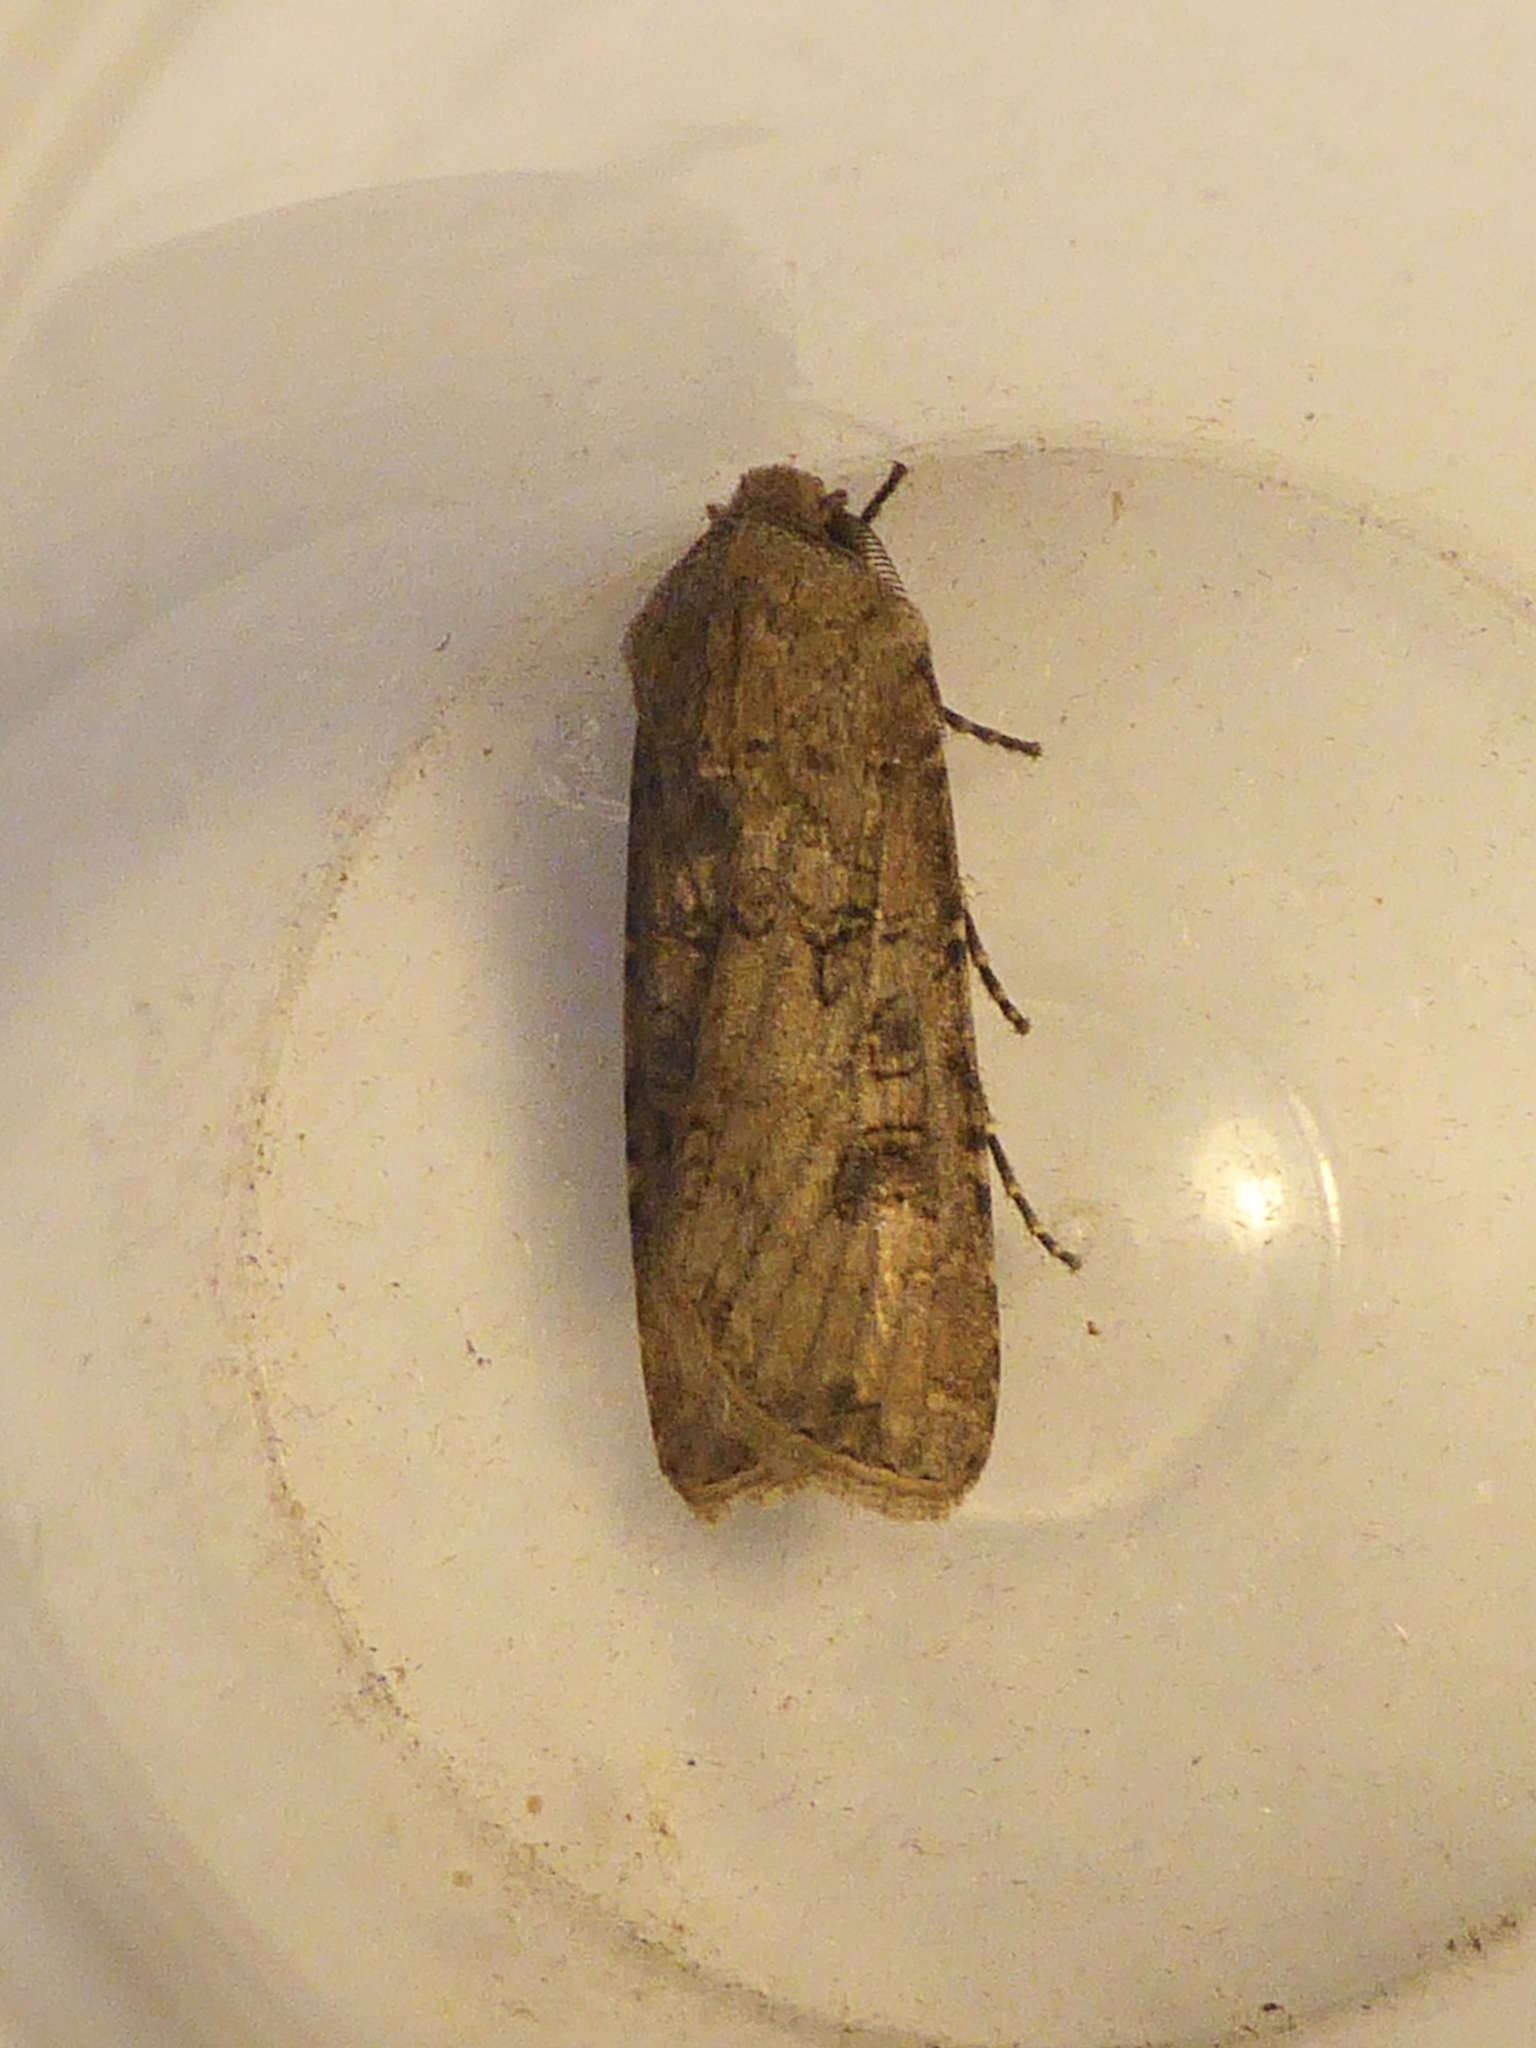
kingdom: Animalia
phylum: Arthropoda
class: Insecta
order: Lepidoptera
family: Noctuidae
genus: Agrotis
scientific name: Agrotis segetum
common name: Turnip moth
